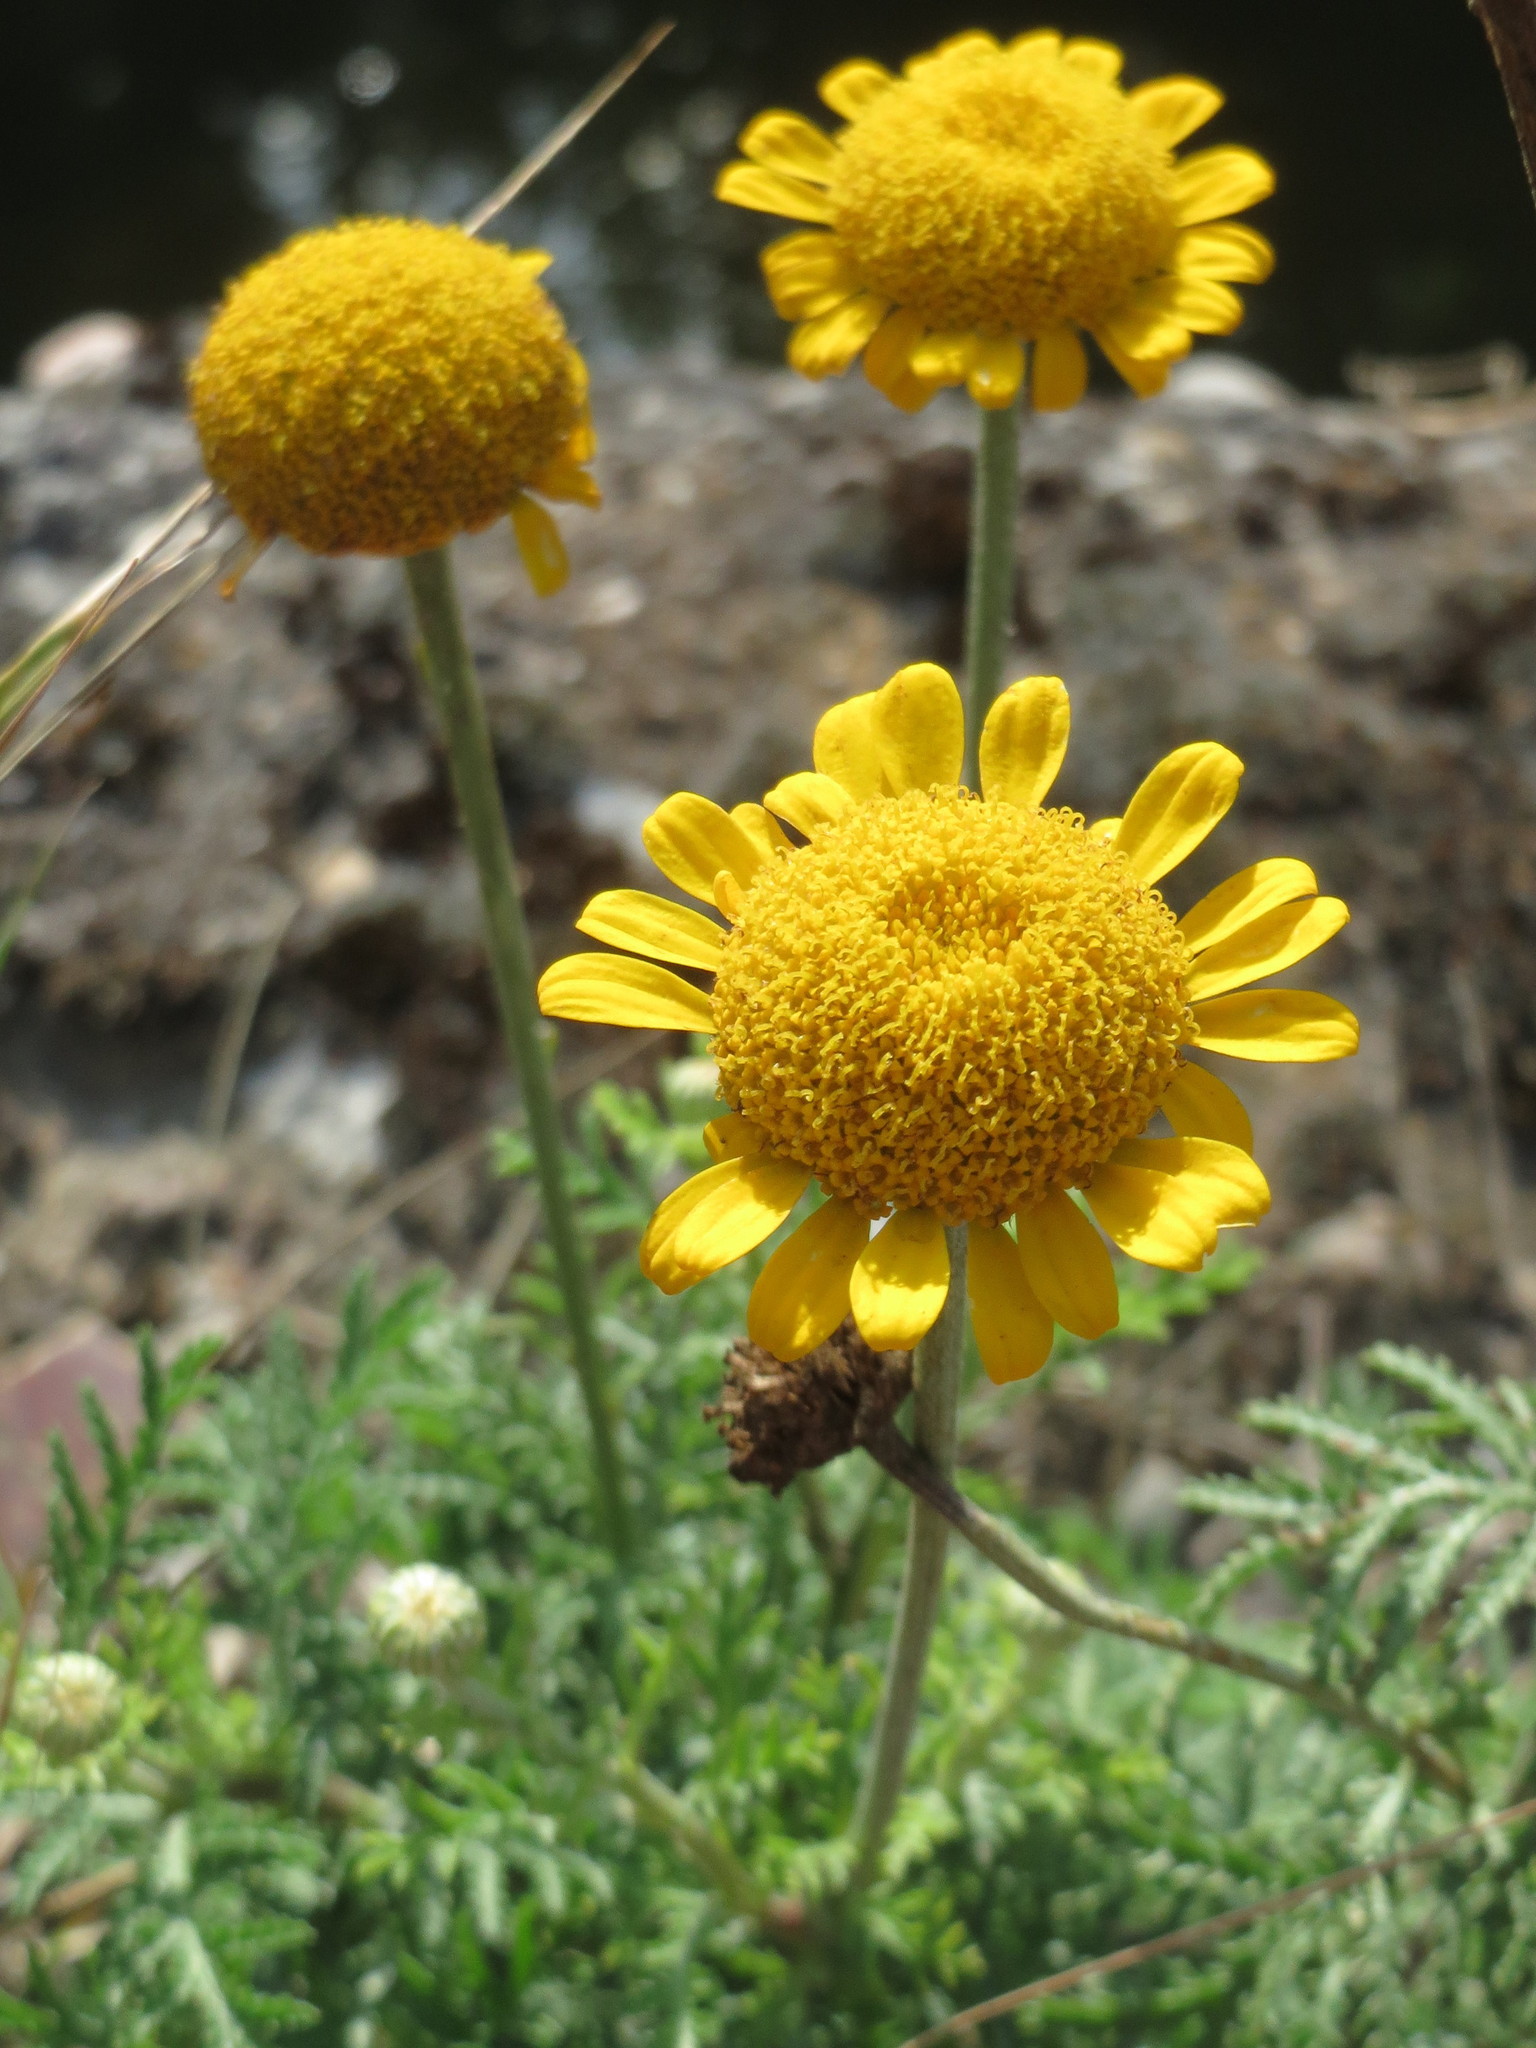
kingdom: Plantae
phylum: Tracheophyta
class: Magnoliopsida
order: Asterales
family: Asteraceae
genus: Cota
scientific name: Cota tinctoria
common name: Golden chamomile
